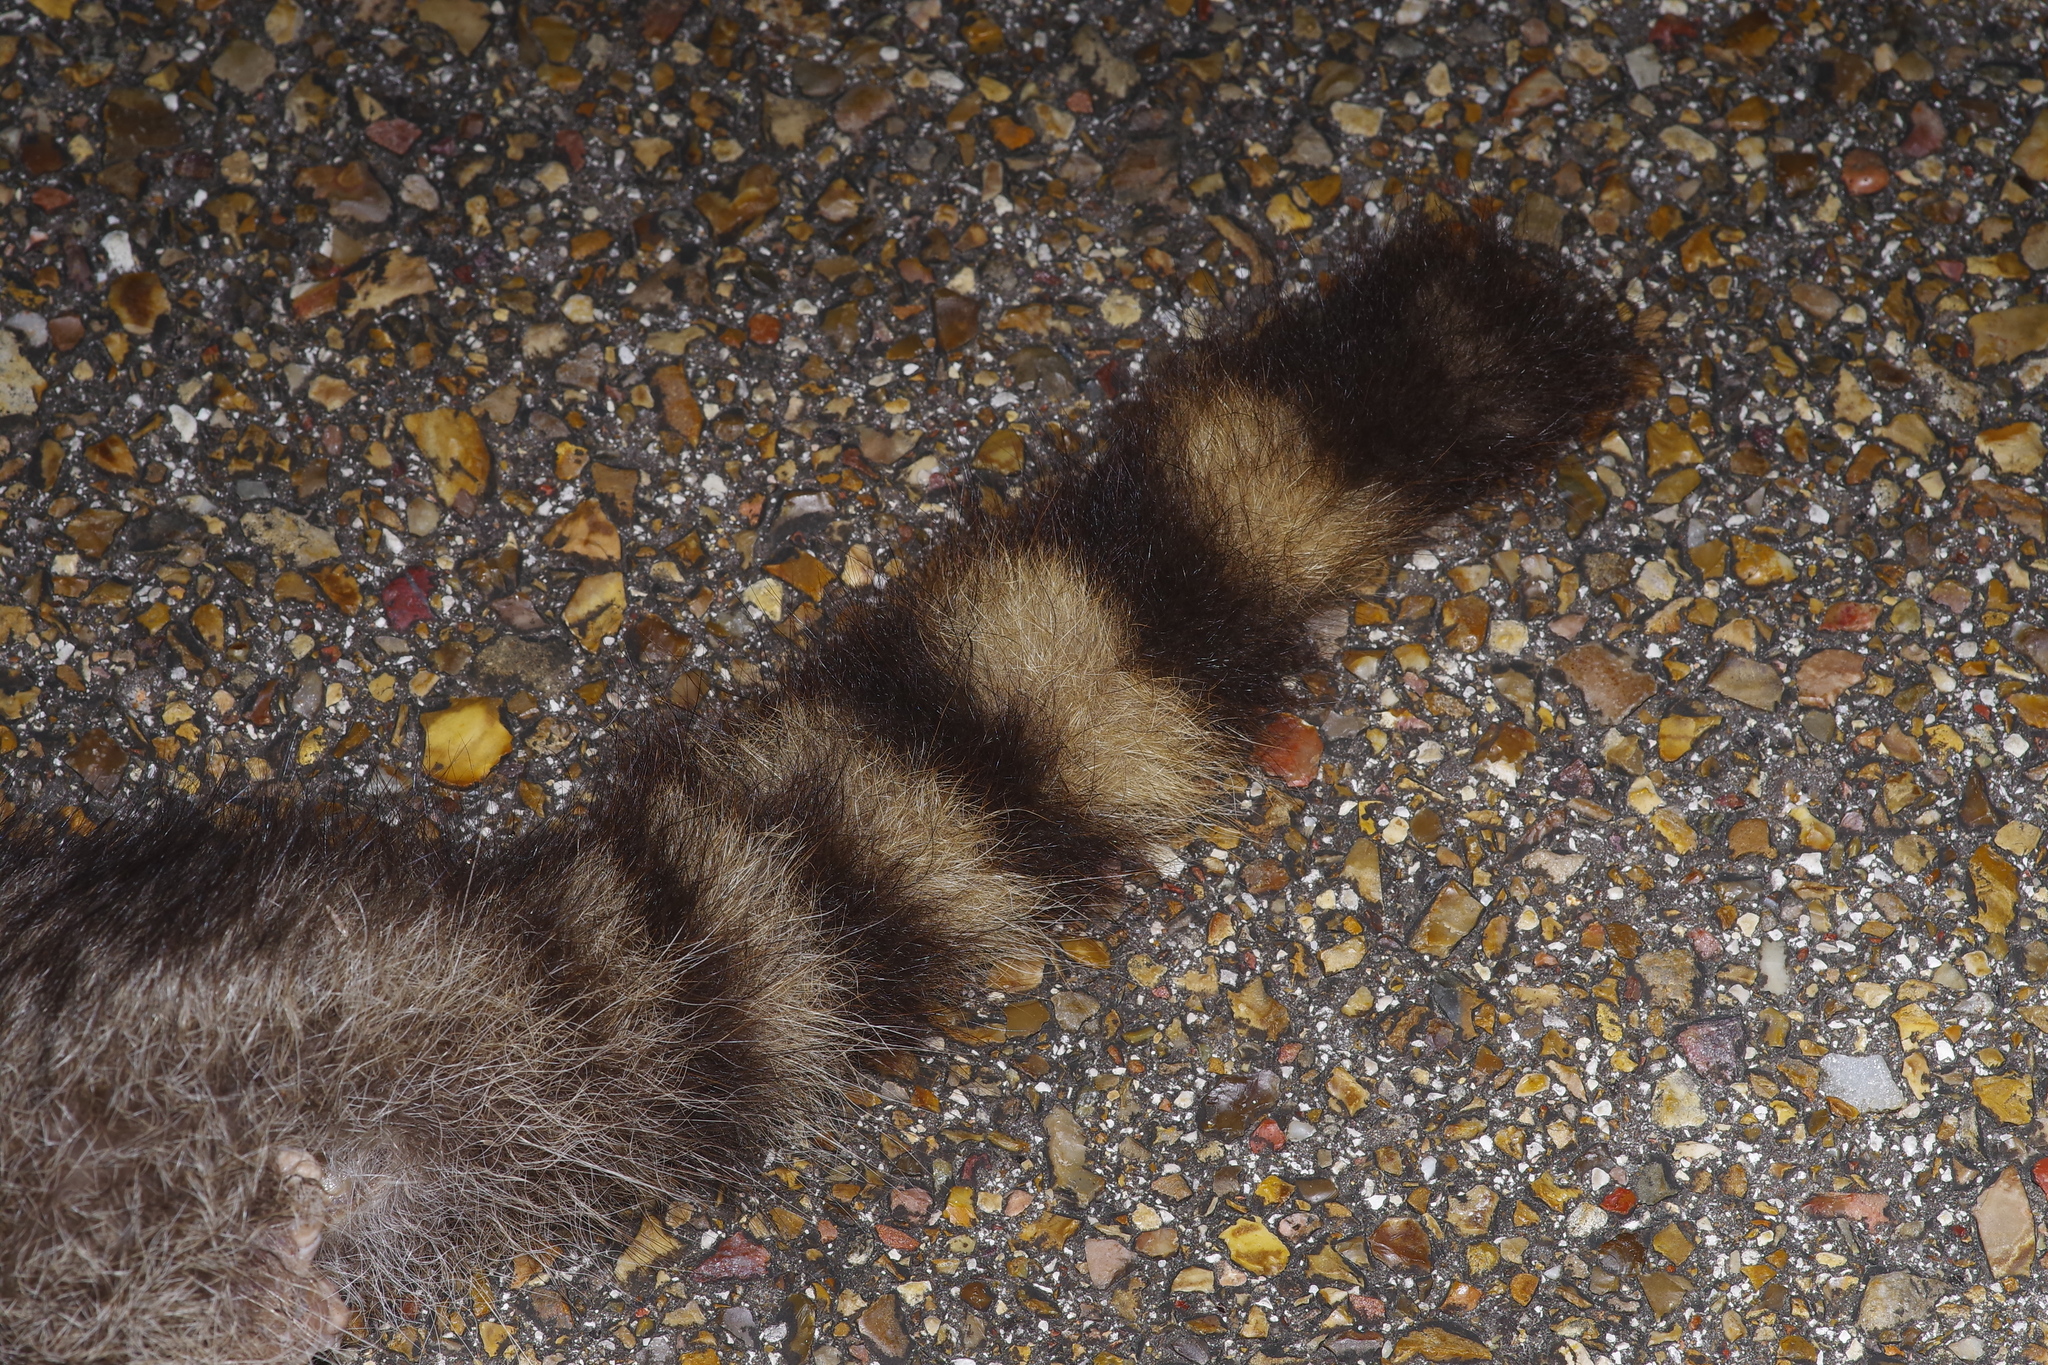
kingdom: Animalia
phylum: Chordata
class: Mammalia
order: Carnivora
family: Procyonidae
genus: Procyon
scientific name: Procyon lotor
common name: Raccoon
